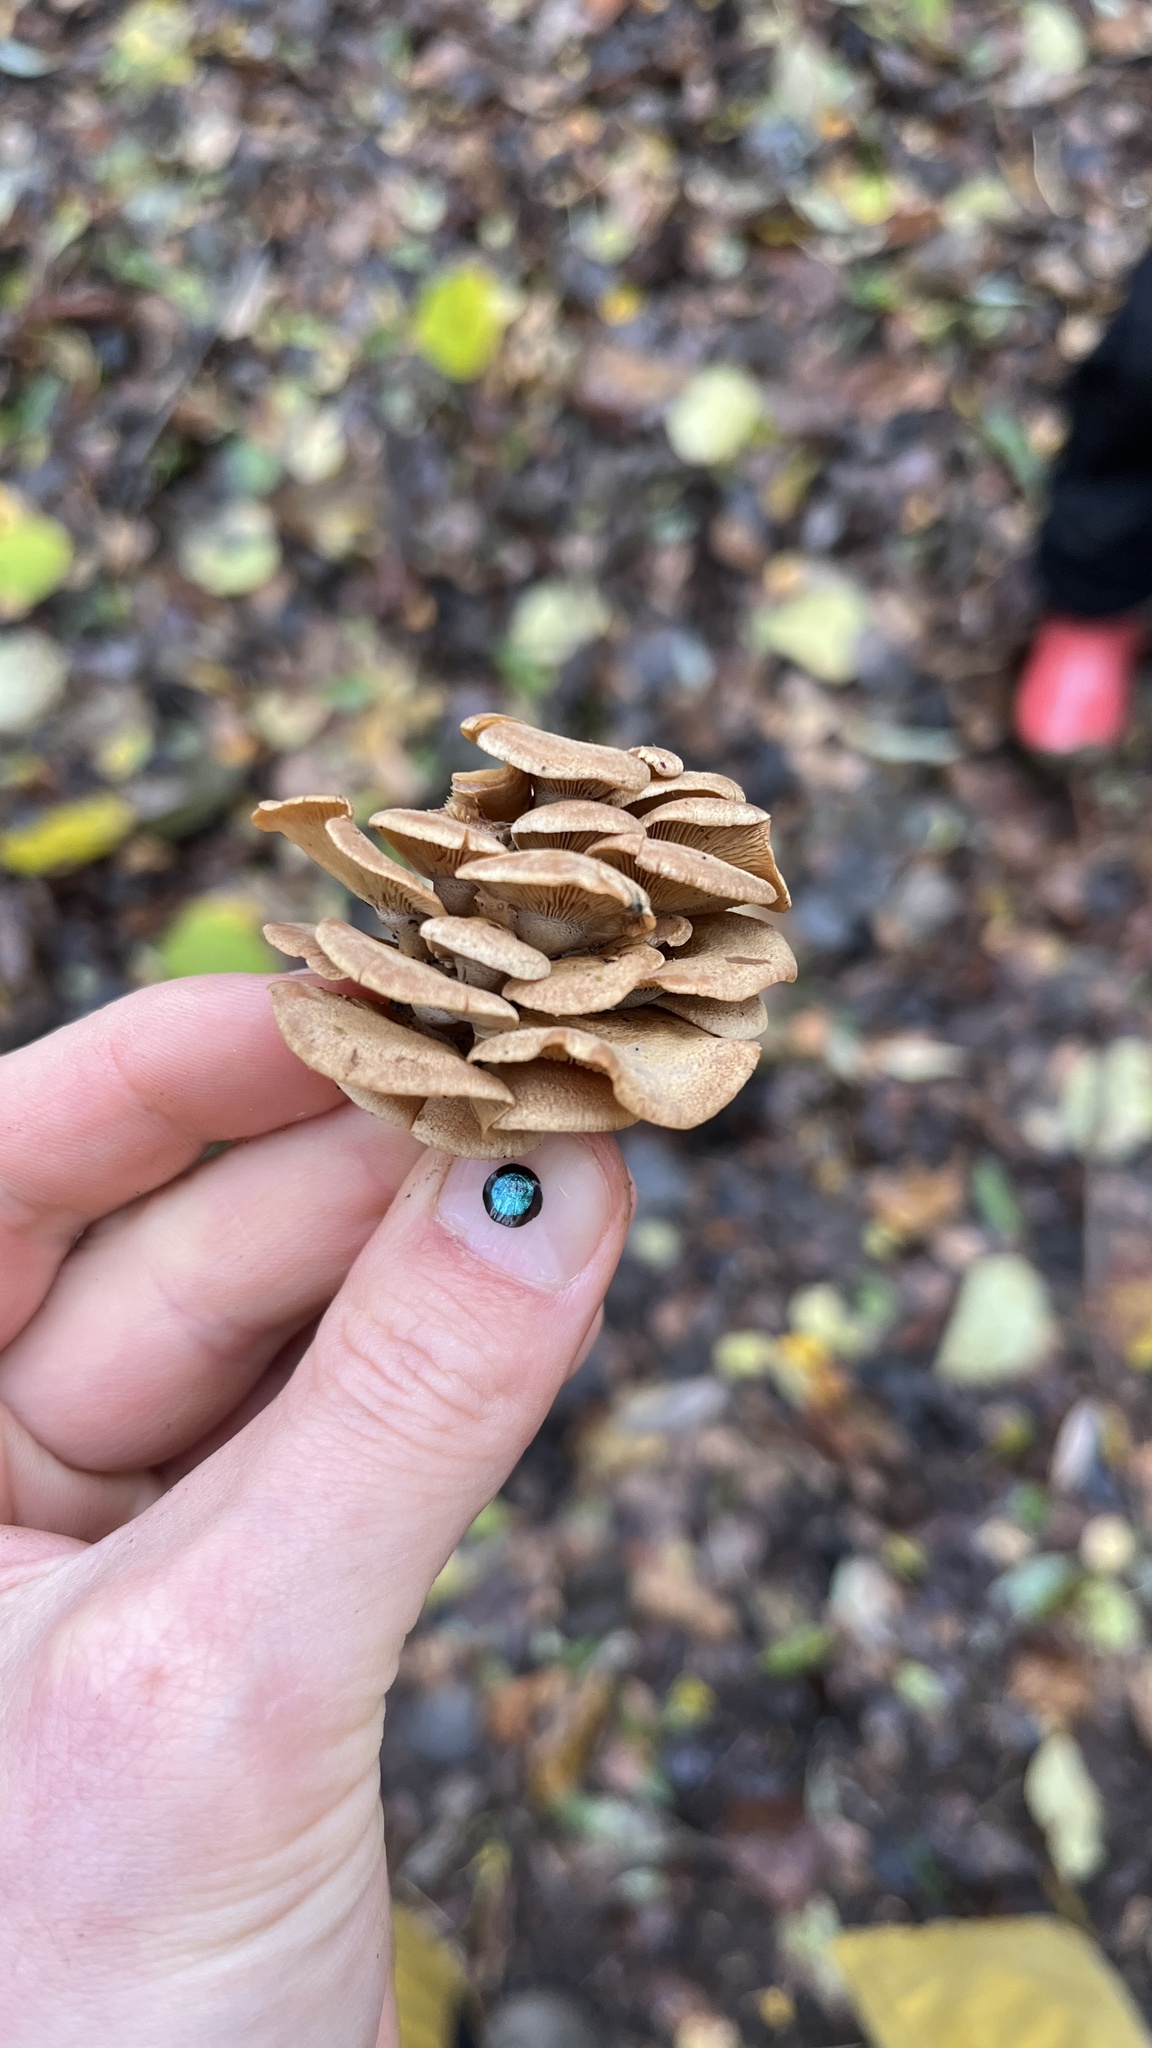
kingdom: Fungi
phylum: Basidiomycota
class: Agaricomycetes
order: Agaricales
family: Mycenaceae
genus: Panellus
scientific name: Panellus stipticus
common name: Bitter oysterling
